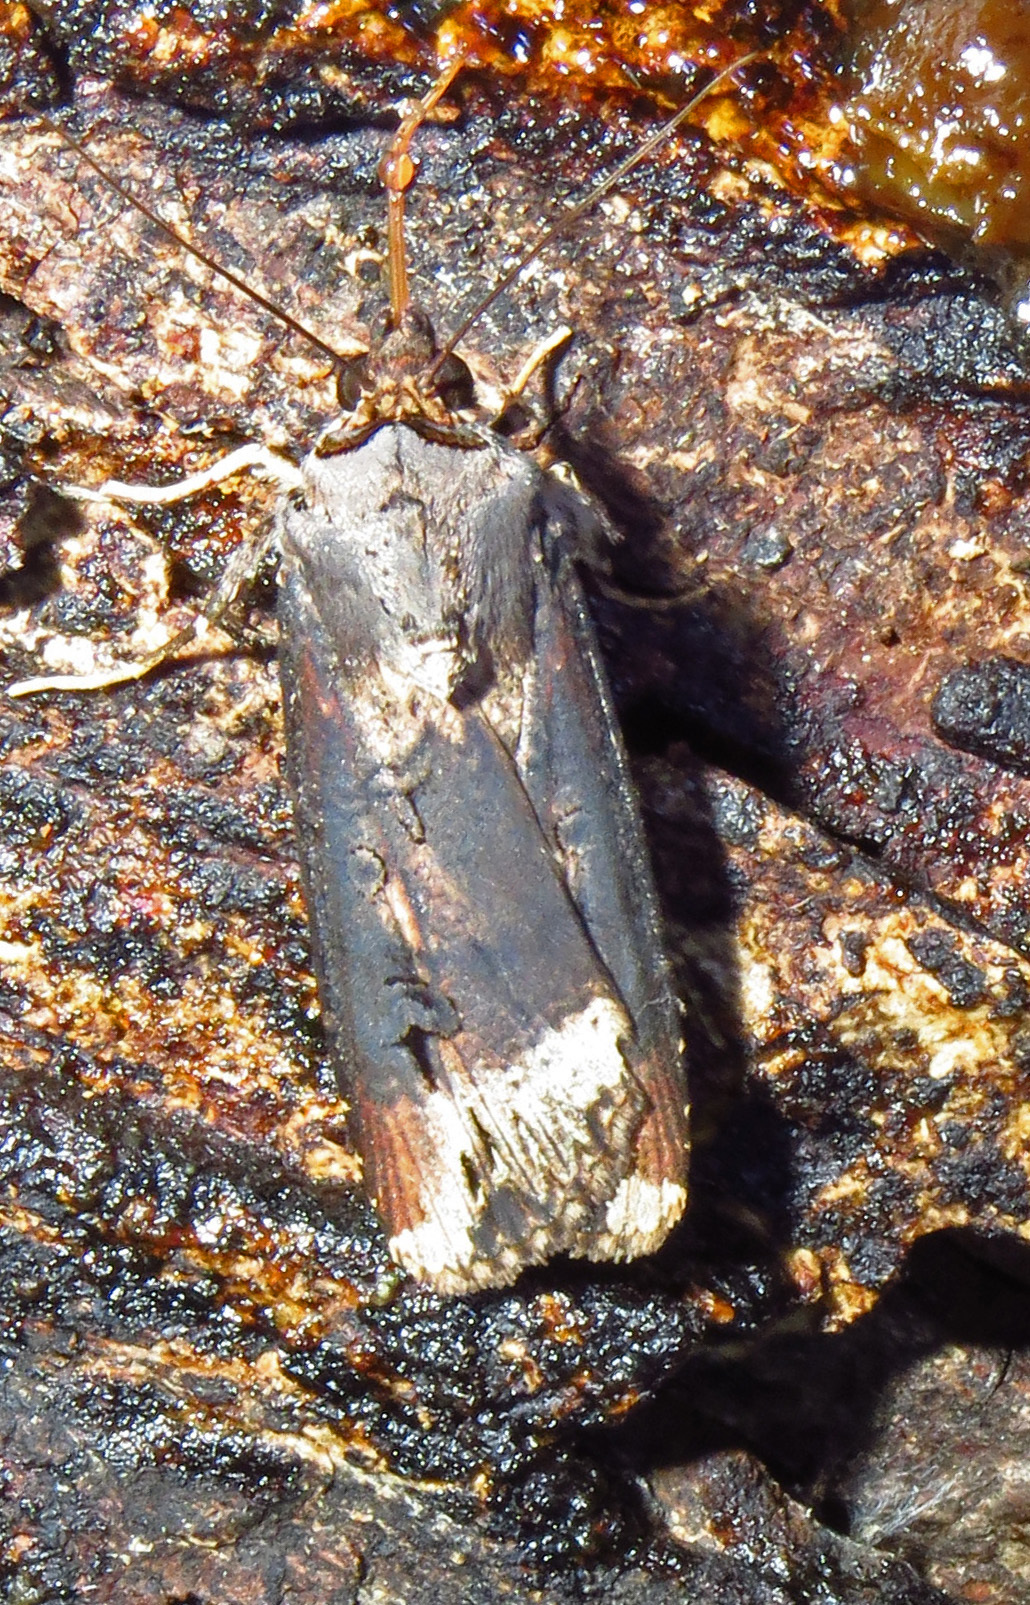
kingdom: Animalia
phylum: Arthropoda
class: Insecta
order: Lepidoptera
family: Noctuidae
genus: Agrotis
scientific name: Agrotis ipsilon
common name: Dark sword-grass
